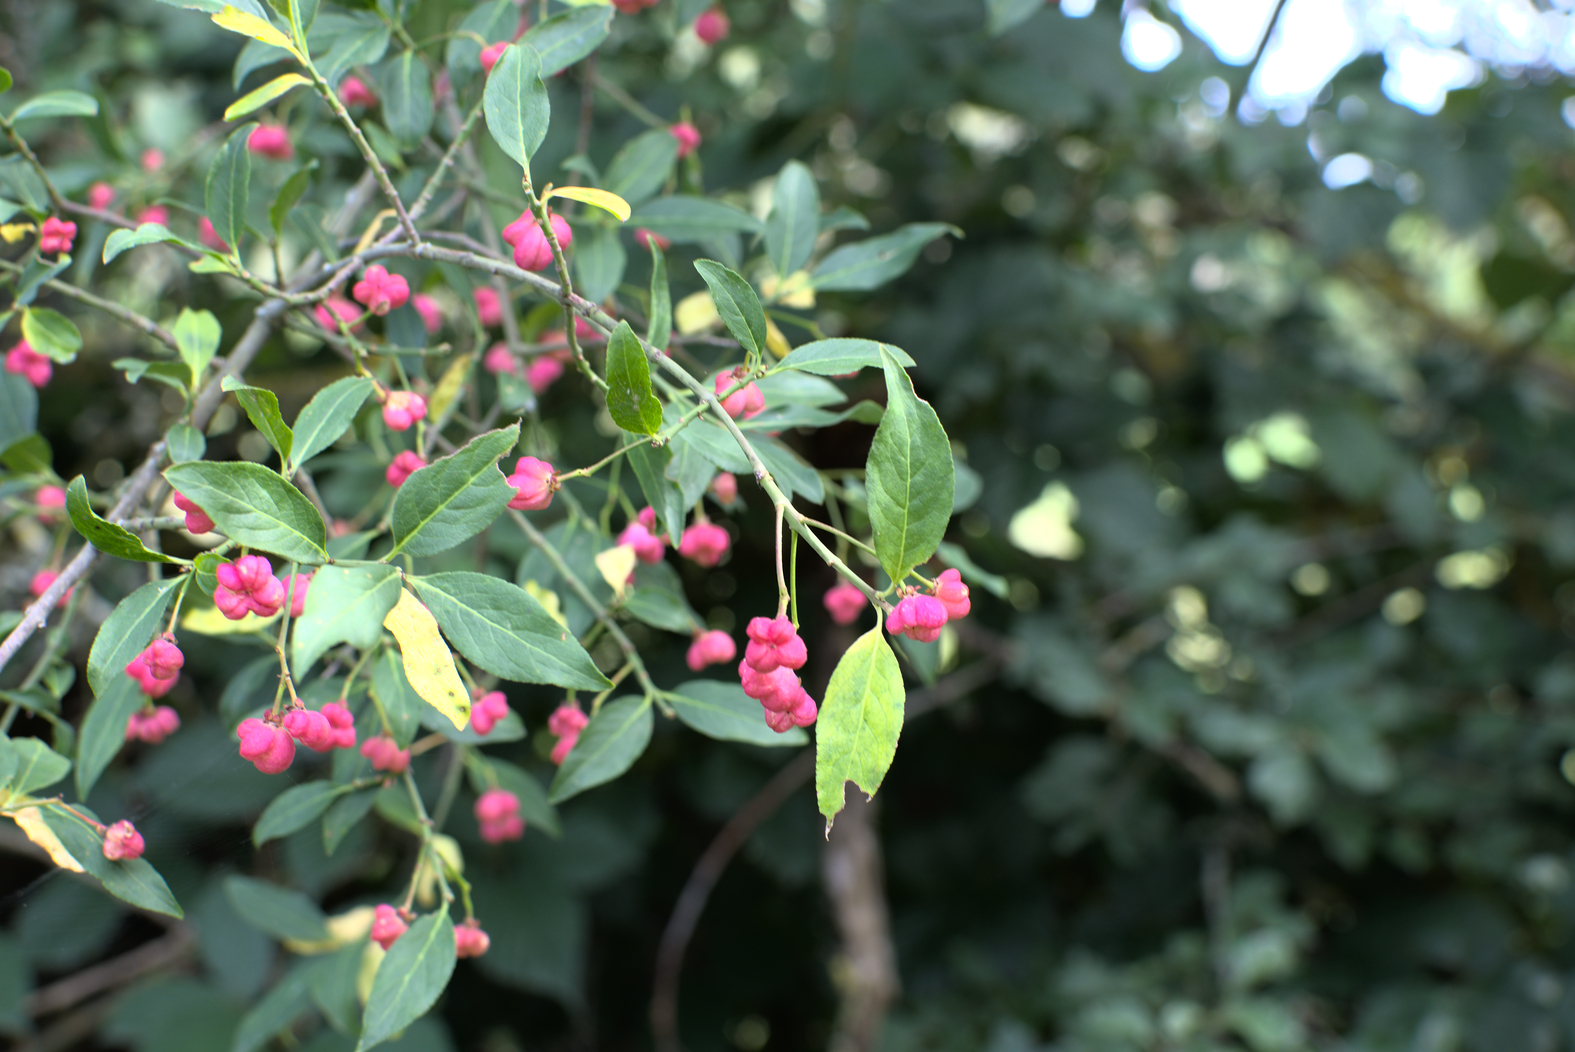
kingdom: Plantae
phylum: Tracheophyta
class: Magnoliopsida
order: Celastrales
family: Celastraceae
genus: Euonymus
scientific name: Euonymus europaeus
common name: Spindle
